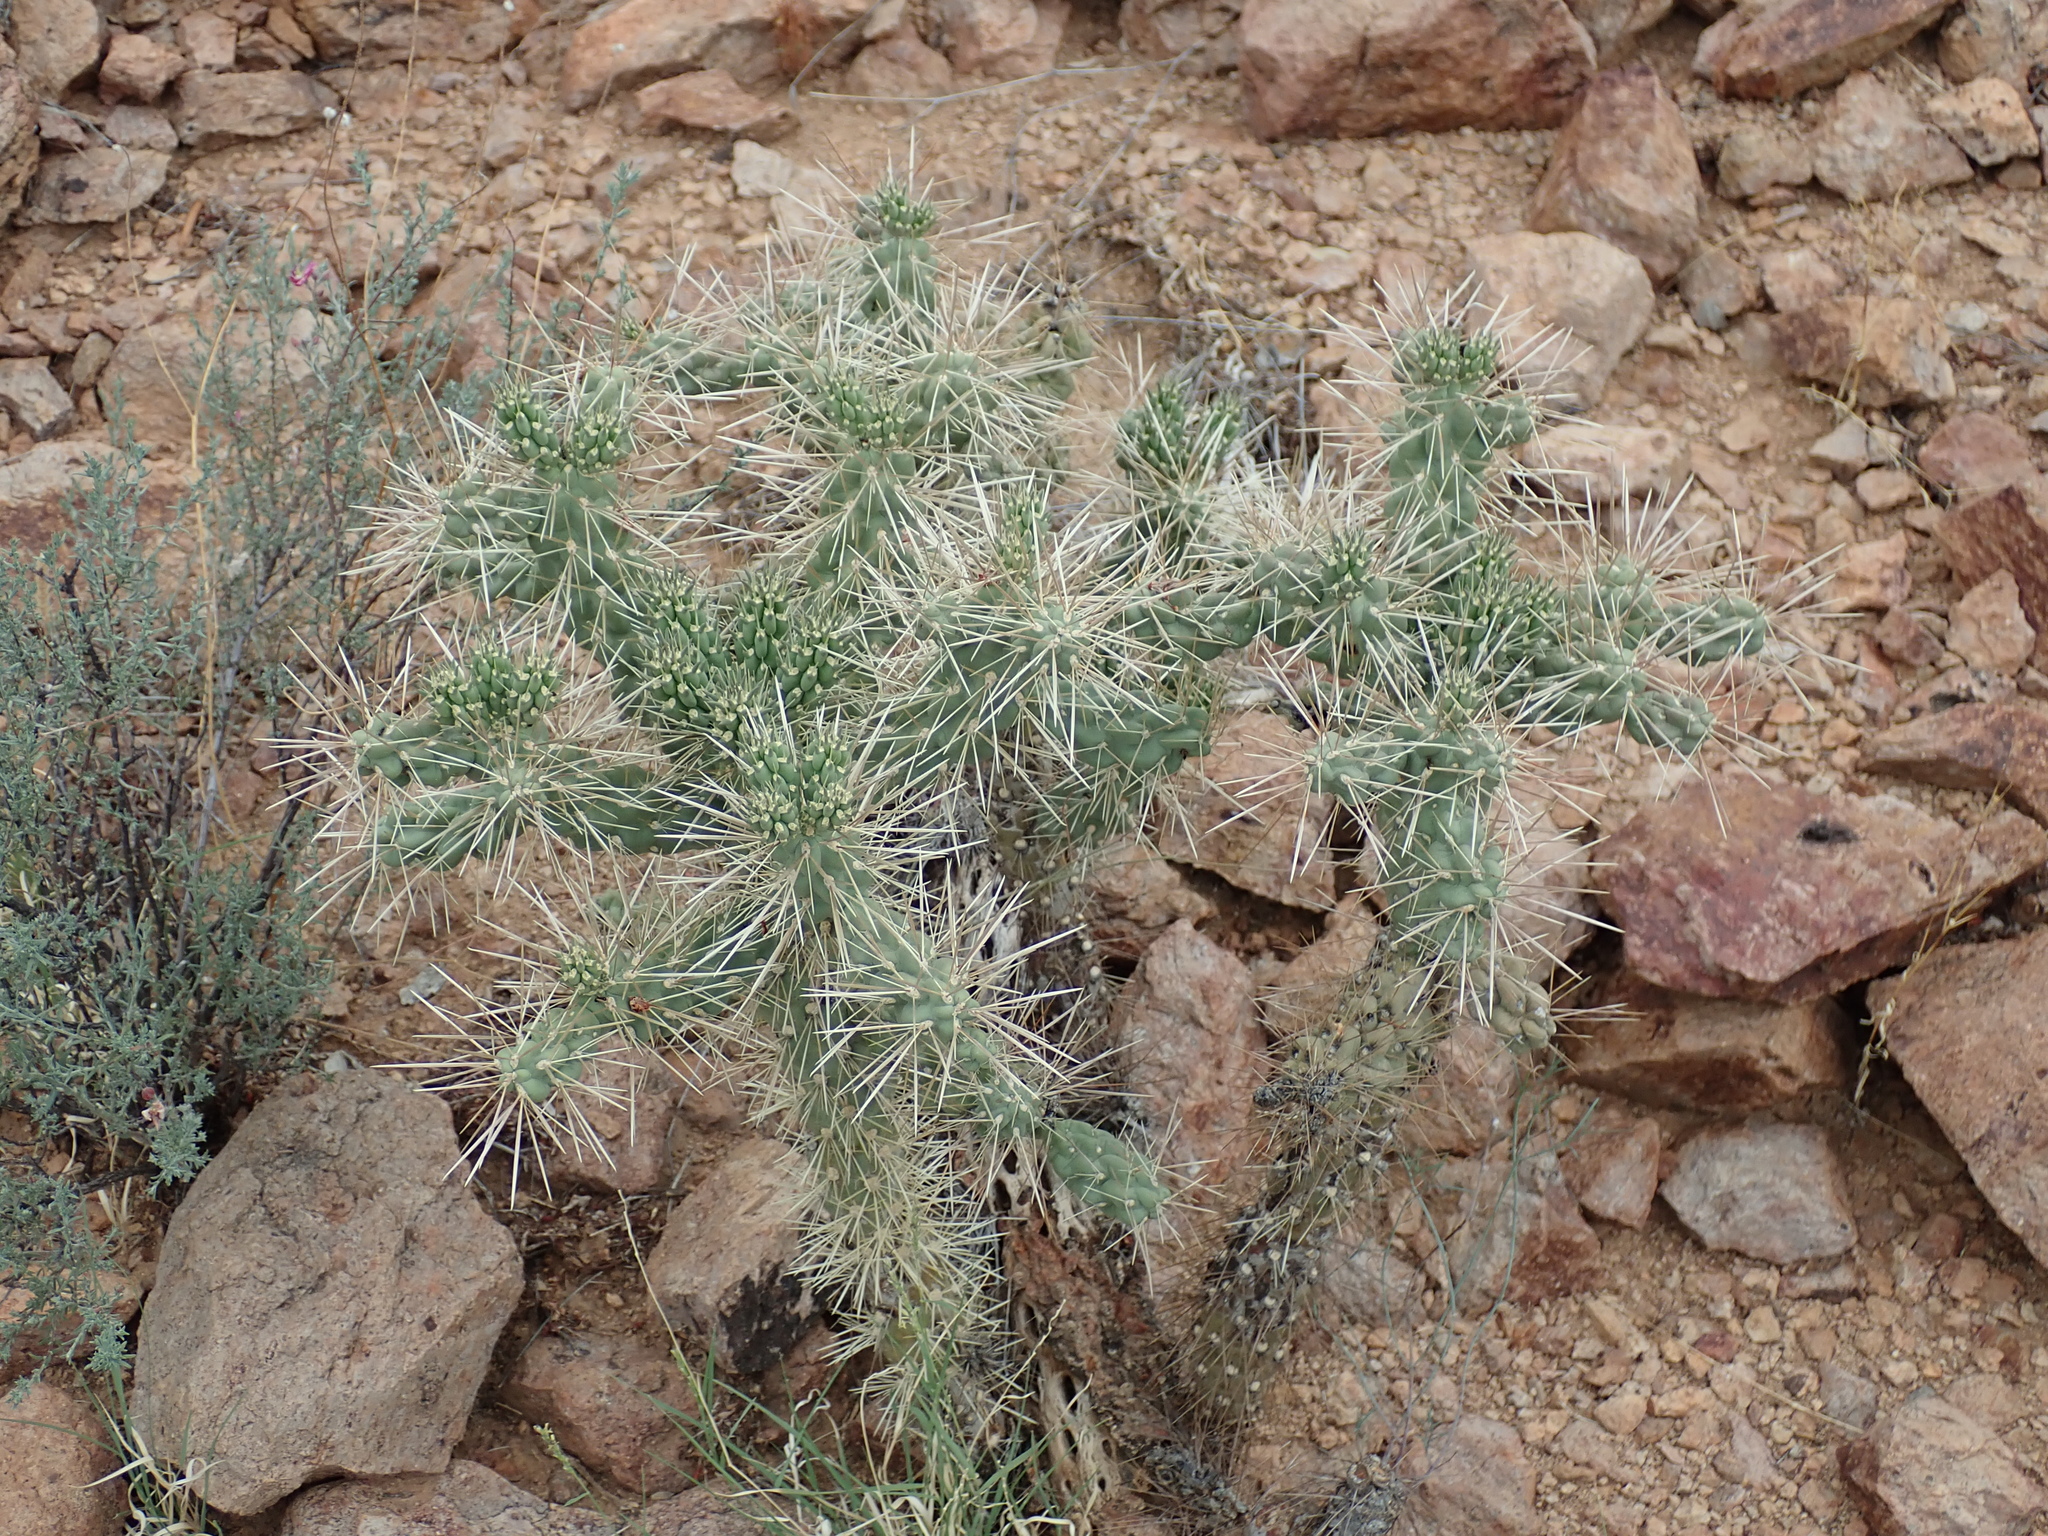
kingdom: Plantae
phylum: Tracheophyta
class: Magnoliopsida
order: Caryophyllales
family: Cactaceae
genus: Cylindropuntia
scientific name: Cylindropuntia fulgida
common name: Jumping cholla
